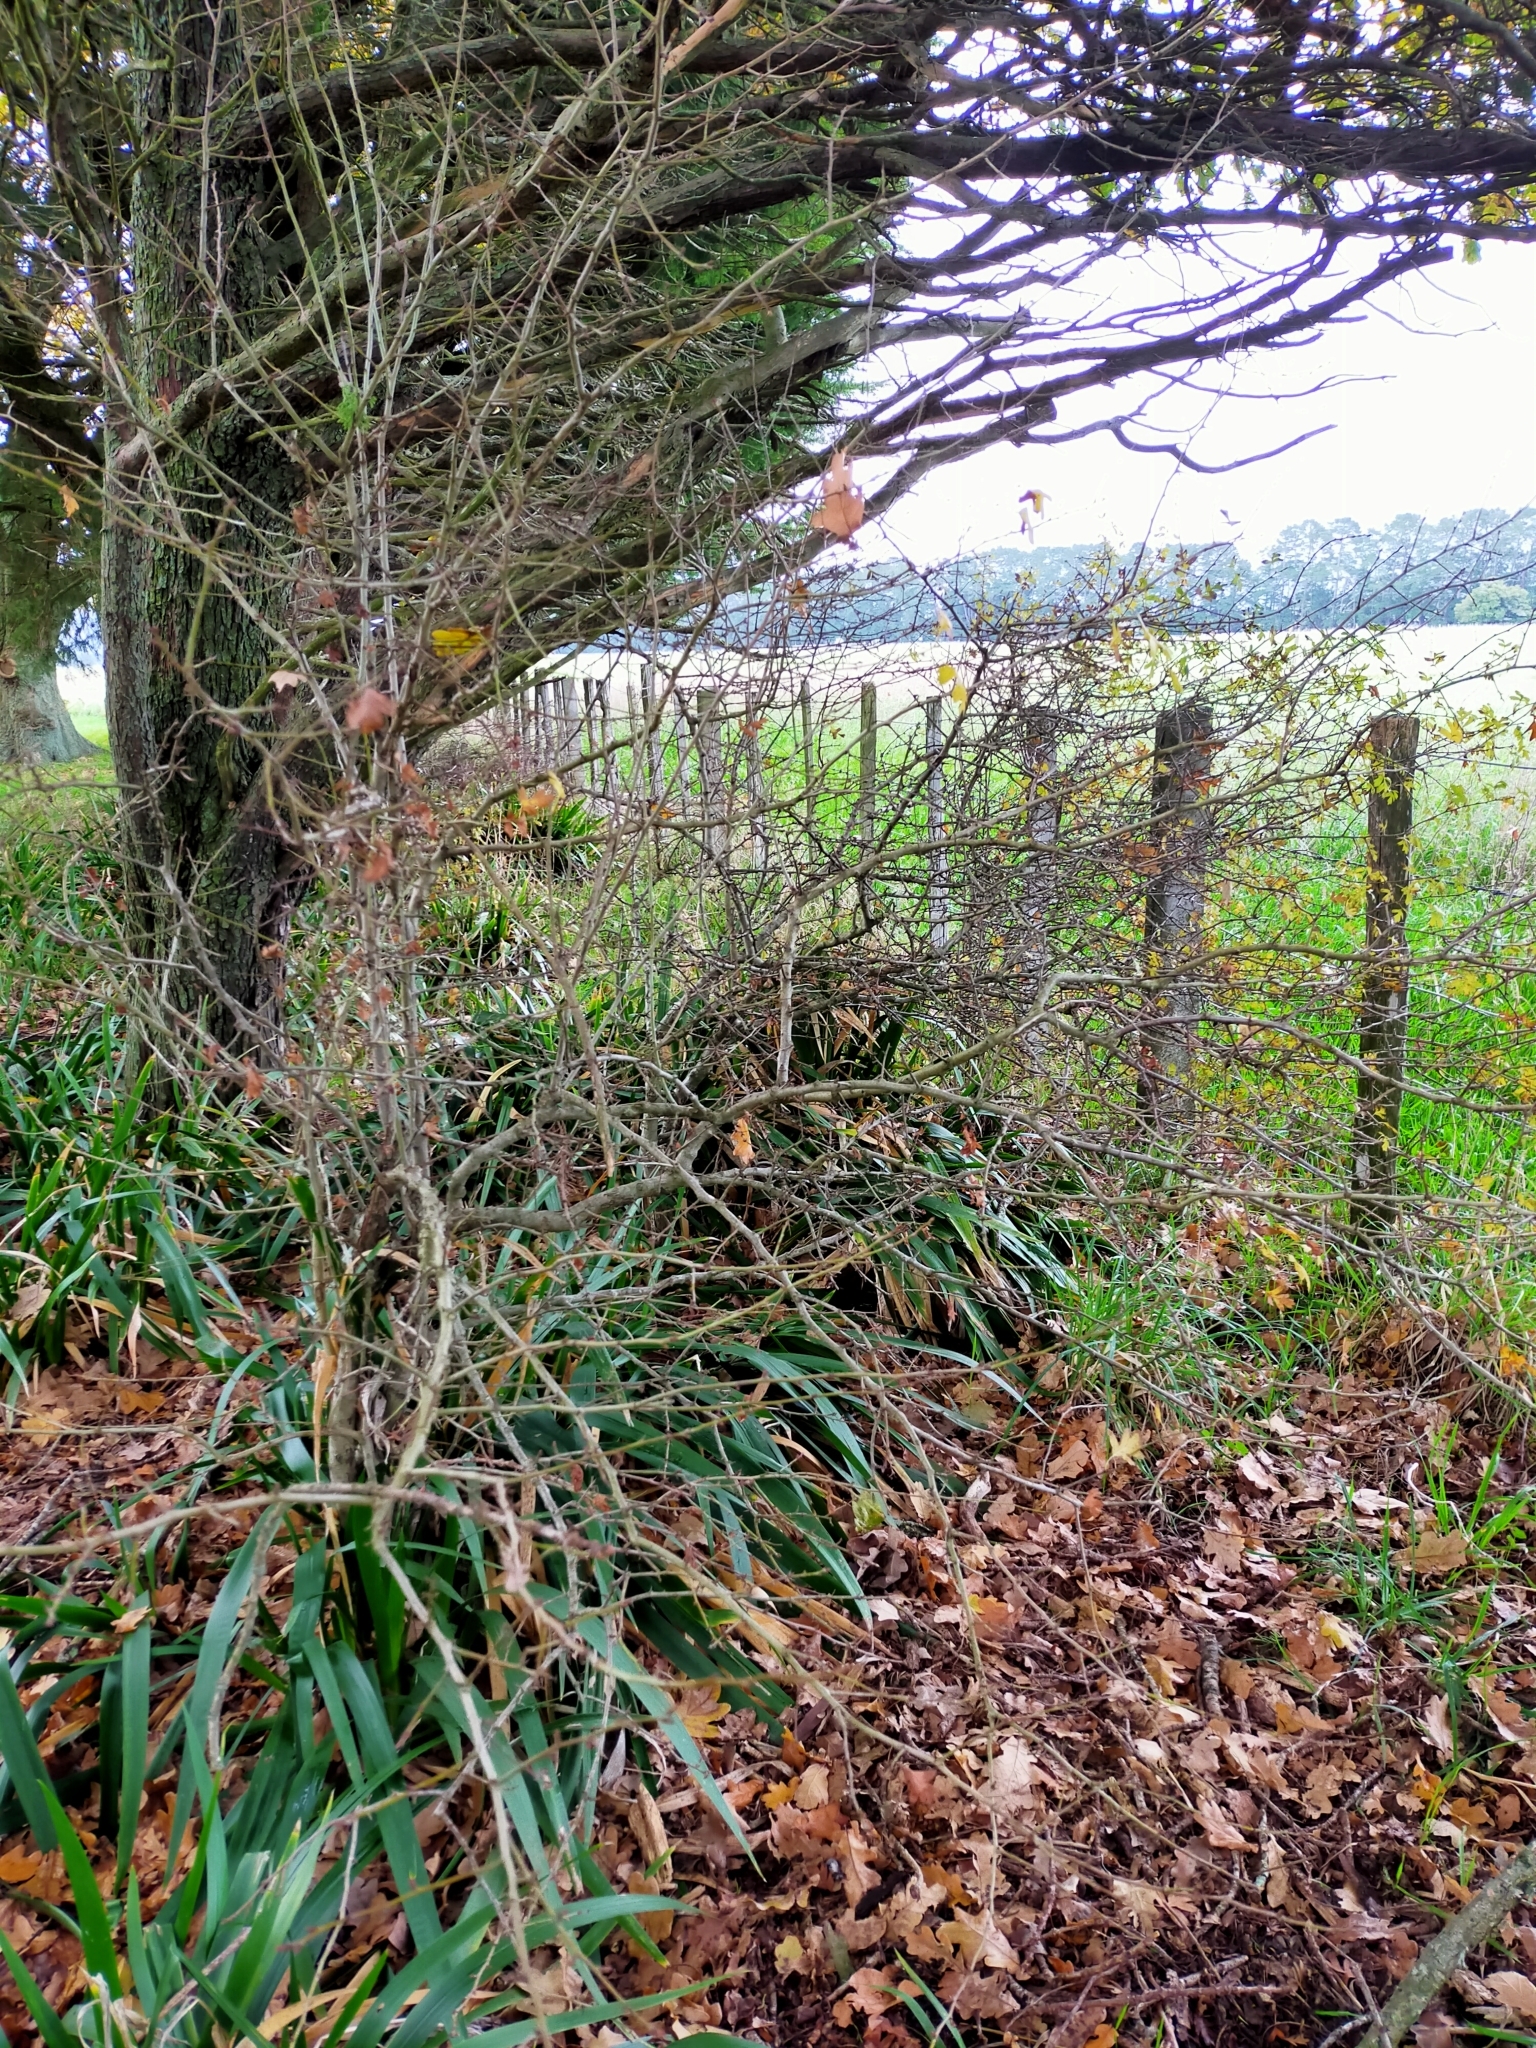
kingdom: Plantae
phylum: Tracheophyta
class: Magnoliopsida
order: Rosales
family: Rosaceae
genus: Crataegus
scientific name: Crataegus monogyna
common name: Hawthorn
